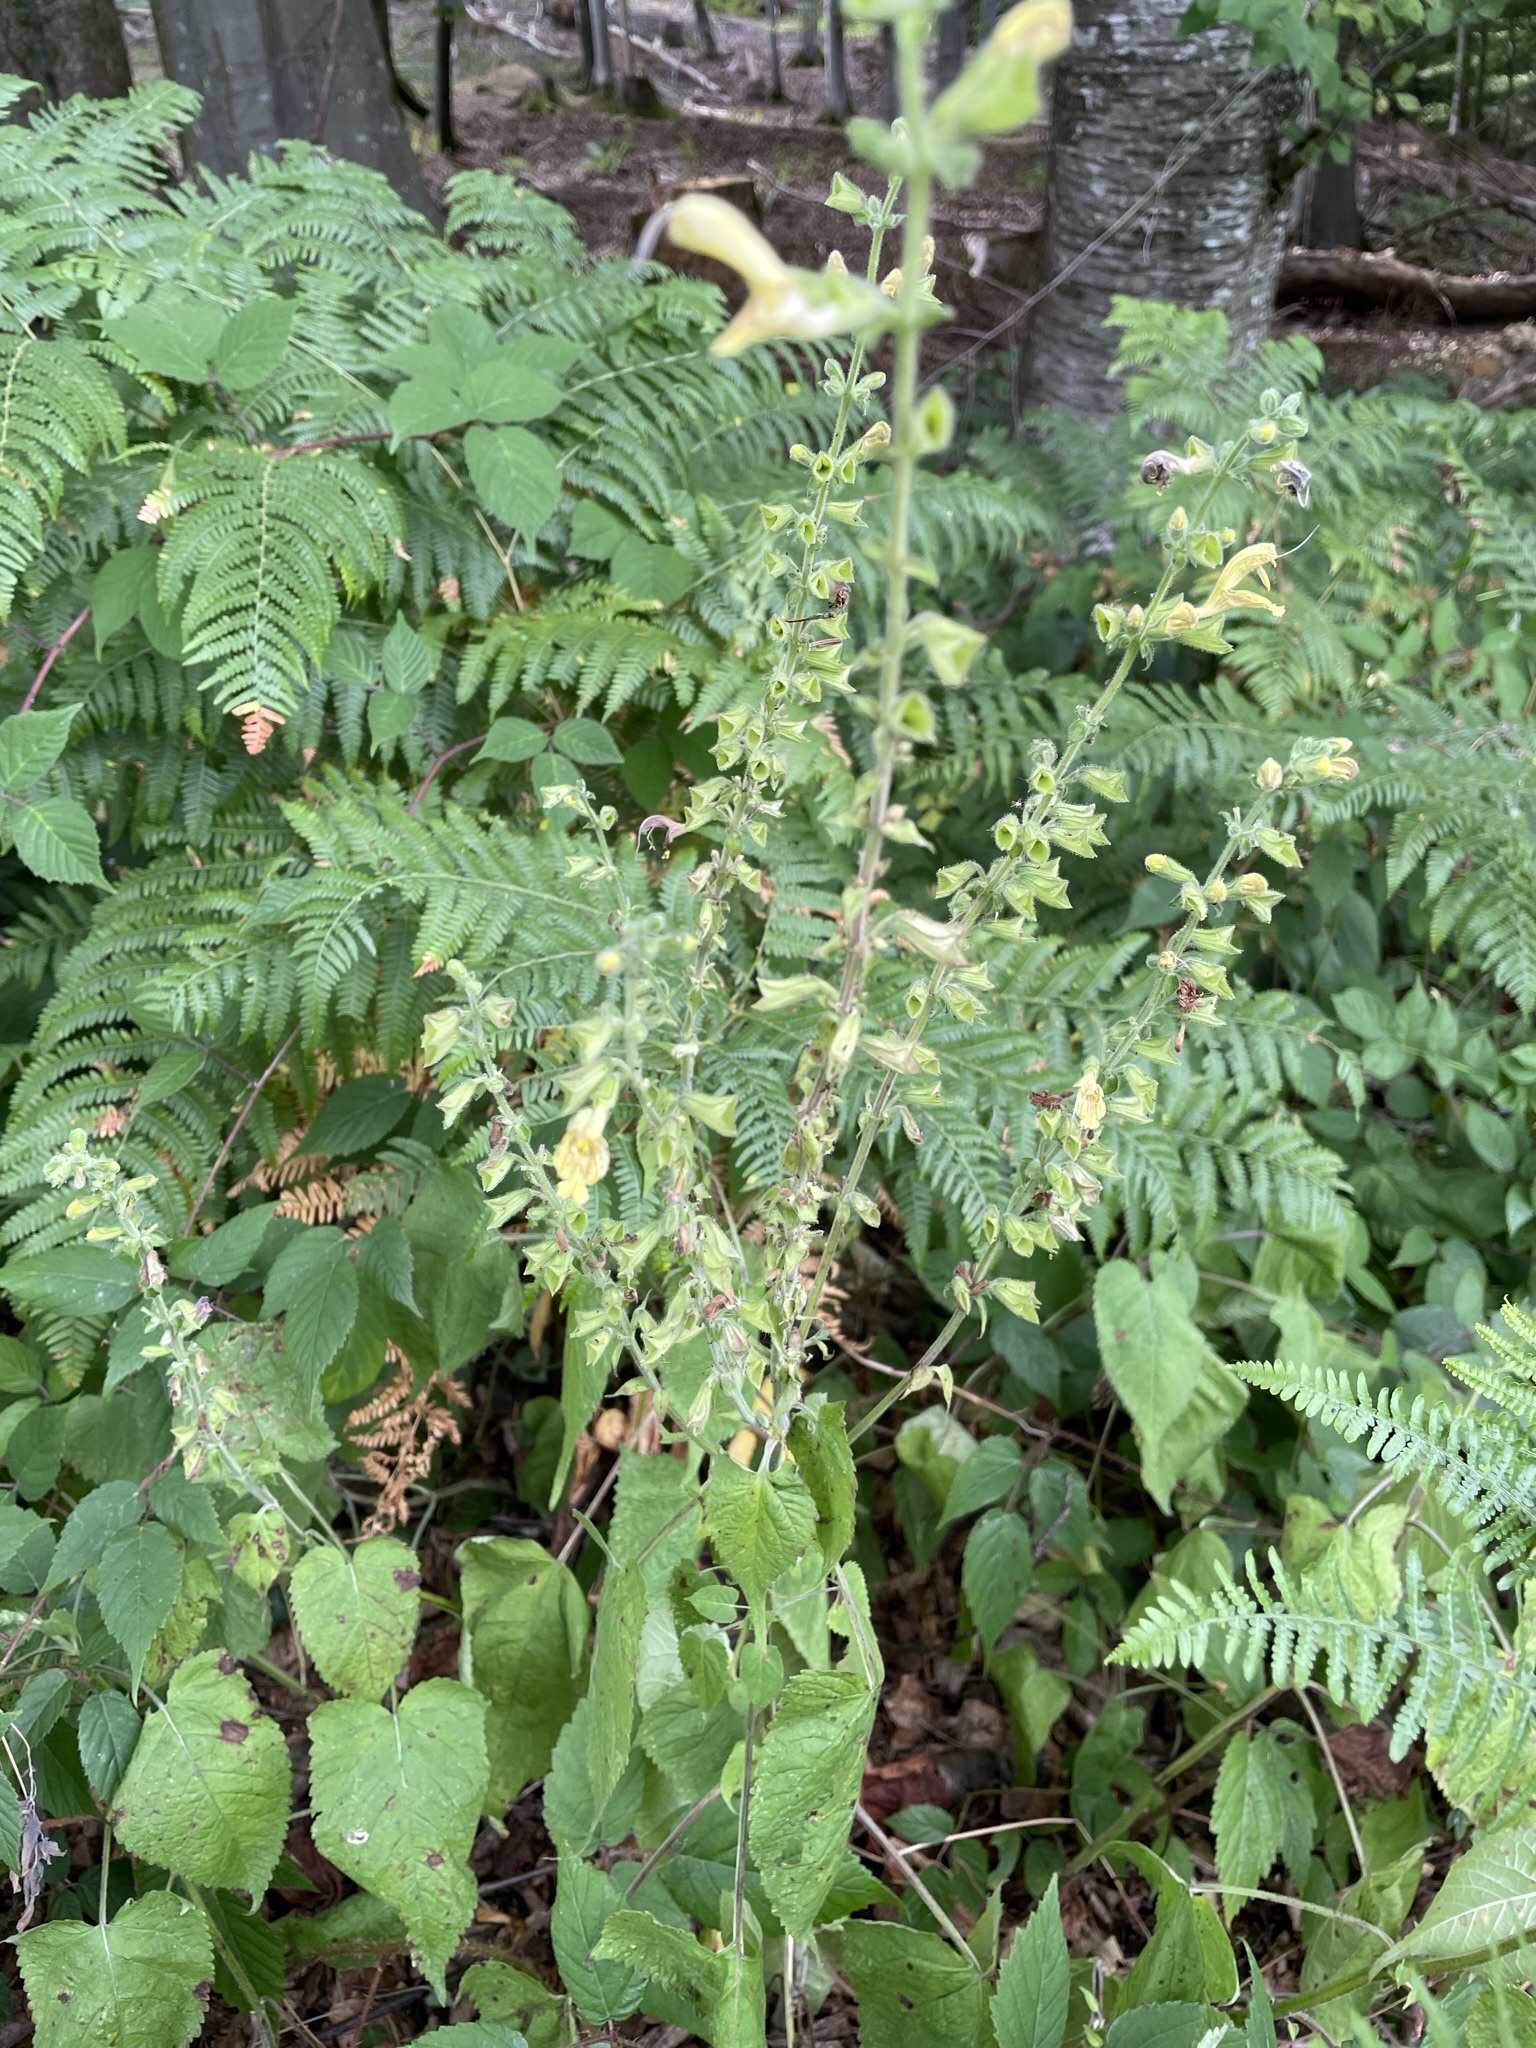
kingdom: Plantae
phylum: Tracheophyta
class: Magnoliopsida
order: Lamiales
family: Lamiaceae
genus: Salvia
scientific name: Salvia glutinosa
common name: Sticky clary
